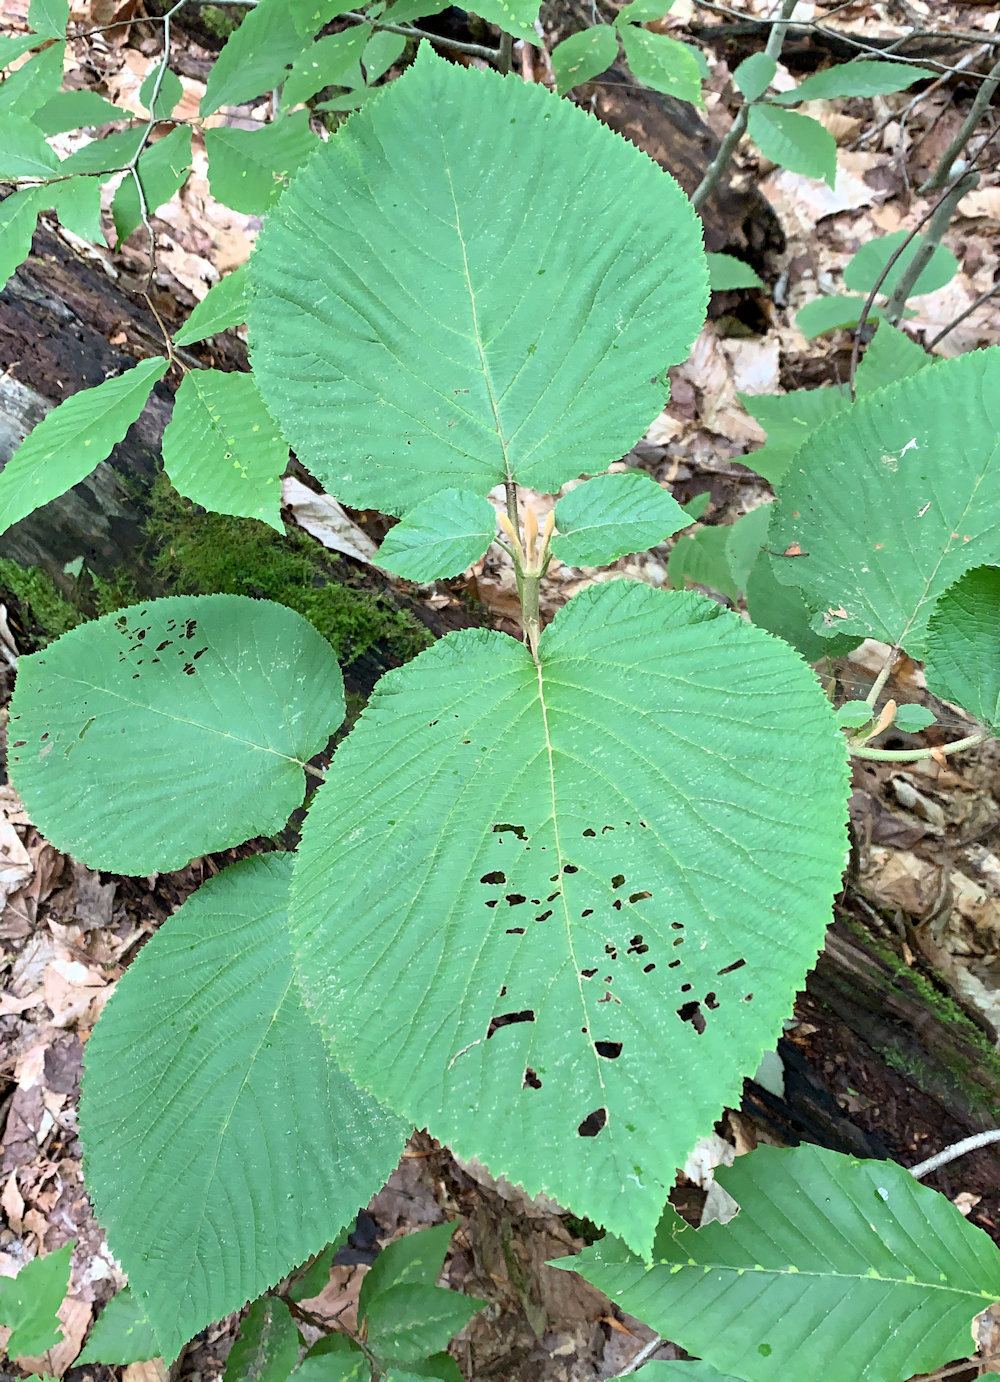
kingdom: Plantae
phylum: Tracheophyta
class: Magnoliopsida
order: Dipsacales
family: Viburnaceae
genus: Viburnum
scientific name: Viburnum lantanoides
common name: Hobblebush
